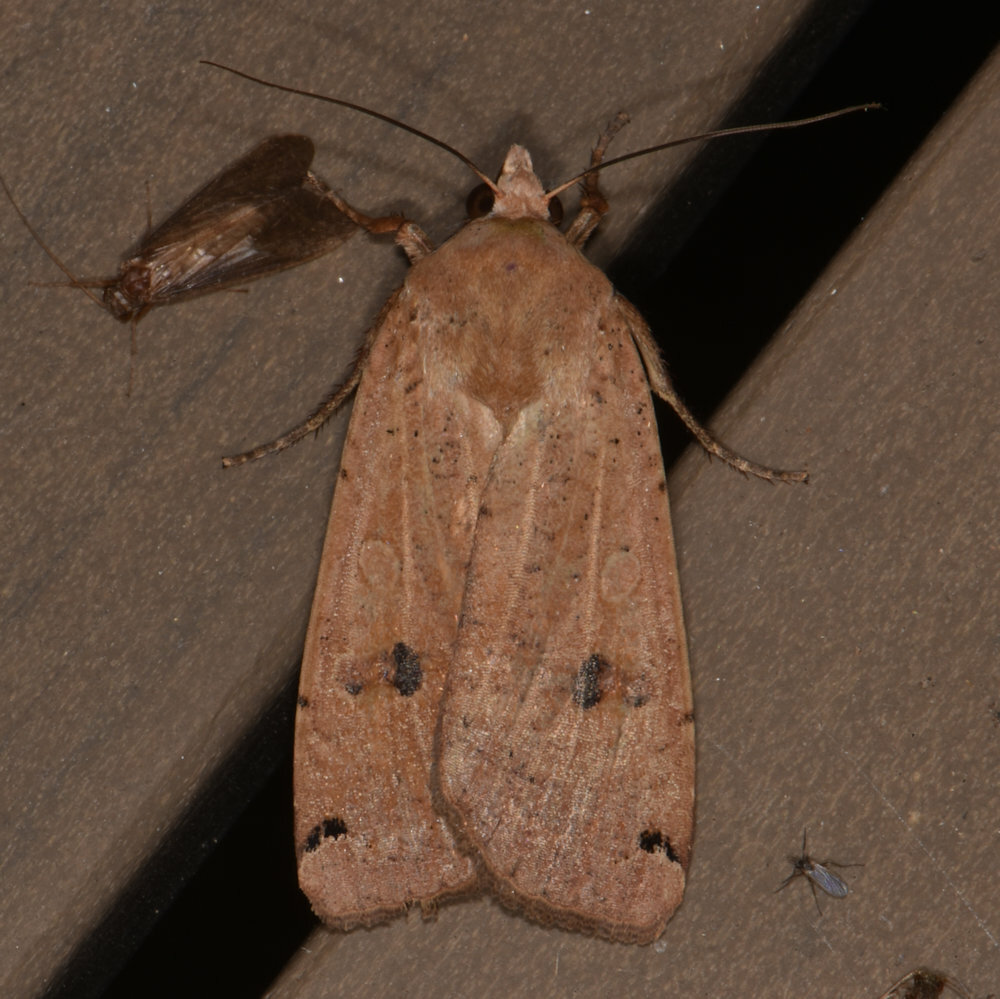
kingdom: Animalia
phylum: Arthropoda
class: Insecta
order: Lepidoptera
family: Noctuidae
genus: Noctua
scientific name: Noctua pronuba
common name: Large yellow underwing
